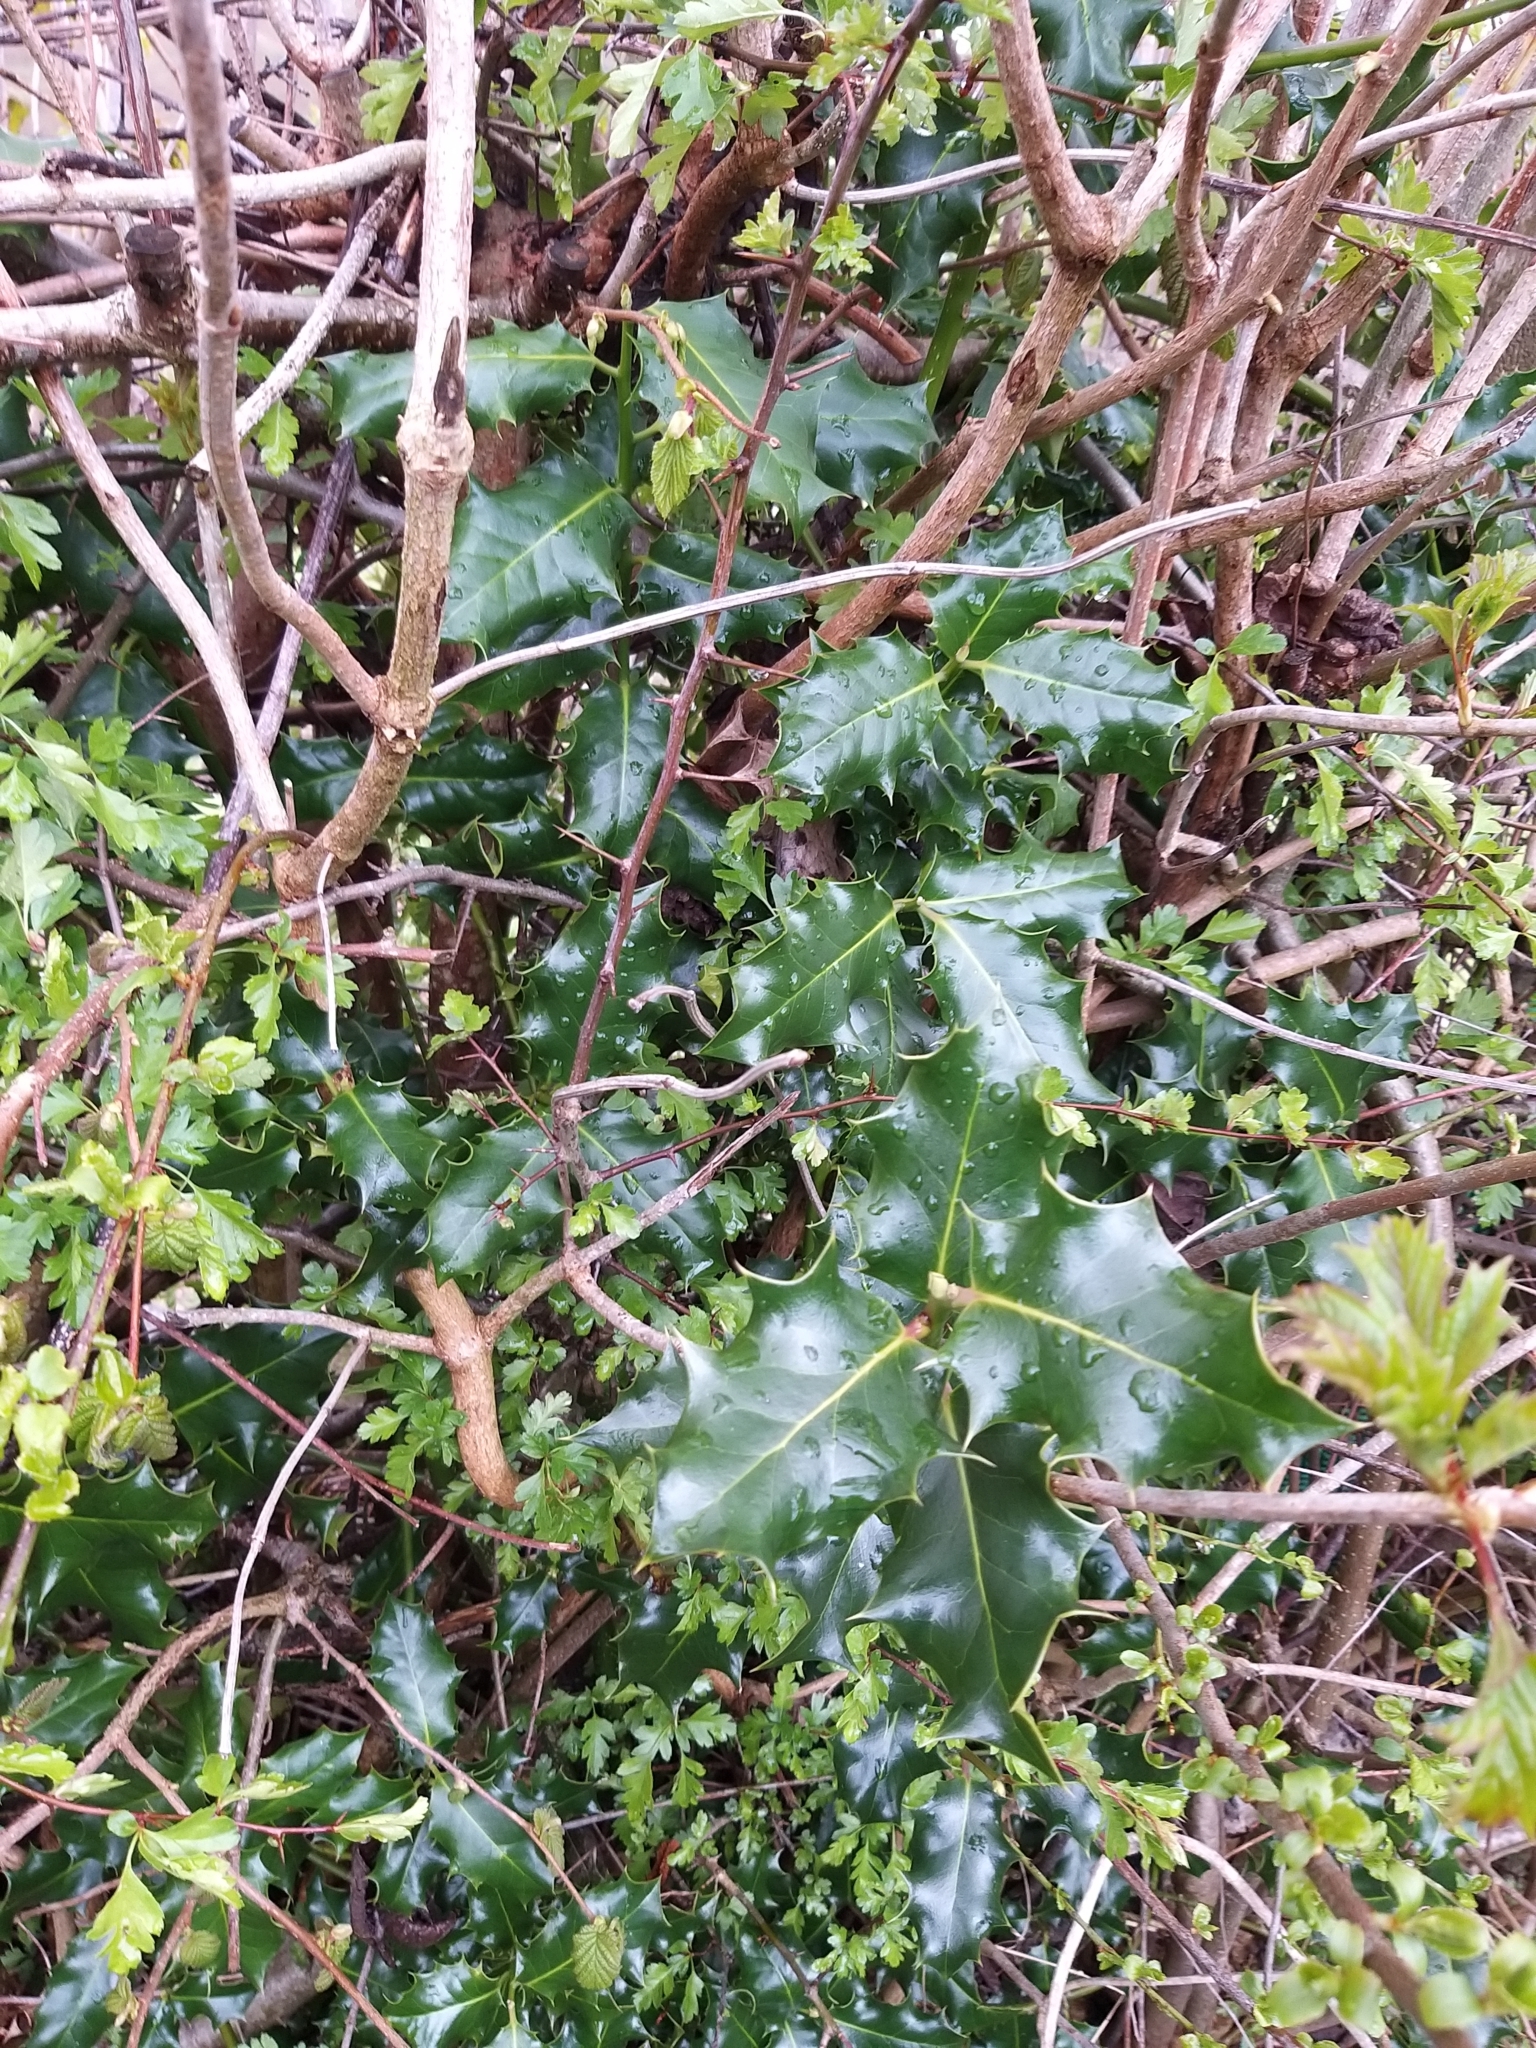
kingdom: Plantae
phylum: Tracheophyta
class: Magnoliopsida
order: Aquifoliales
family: Aquifoliaceae
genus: Ilex
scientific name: Ilex aquifolium
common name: English holly
